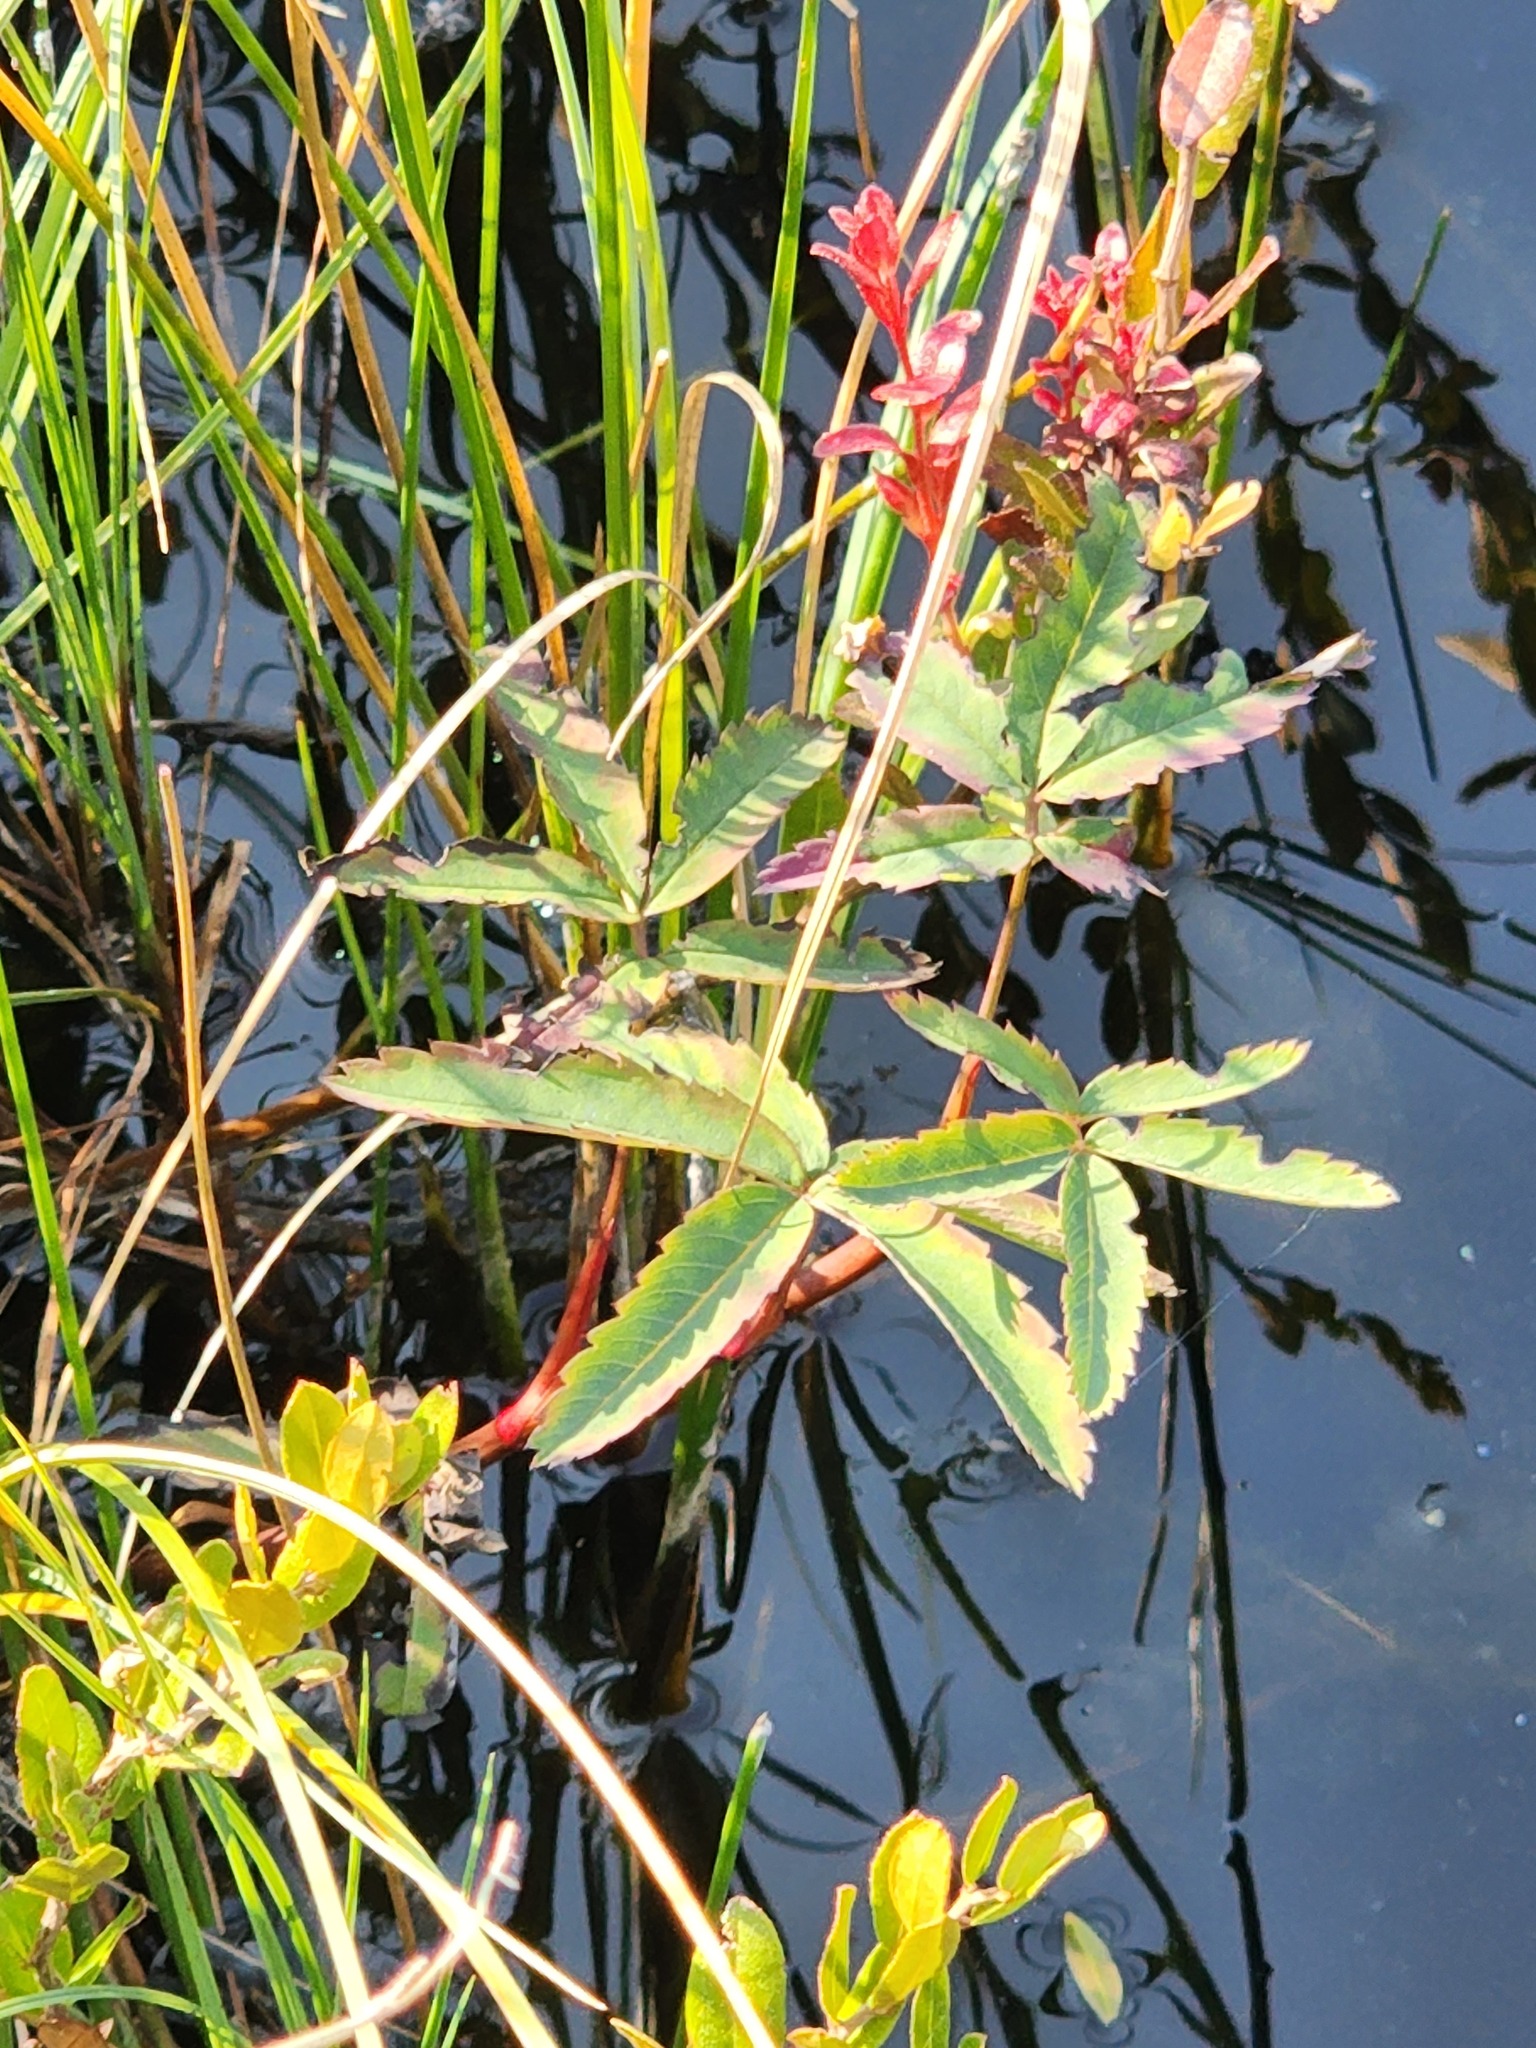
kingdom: Plantae
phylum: Tracheophyta
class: Magnoliopsida
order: Rosales
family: Rosaceae
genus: Comarum
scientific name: Comarum palustre
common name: Marsh cinquefoil
